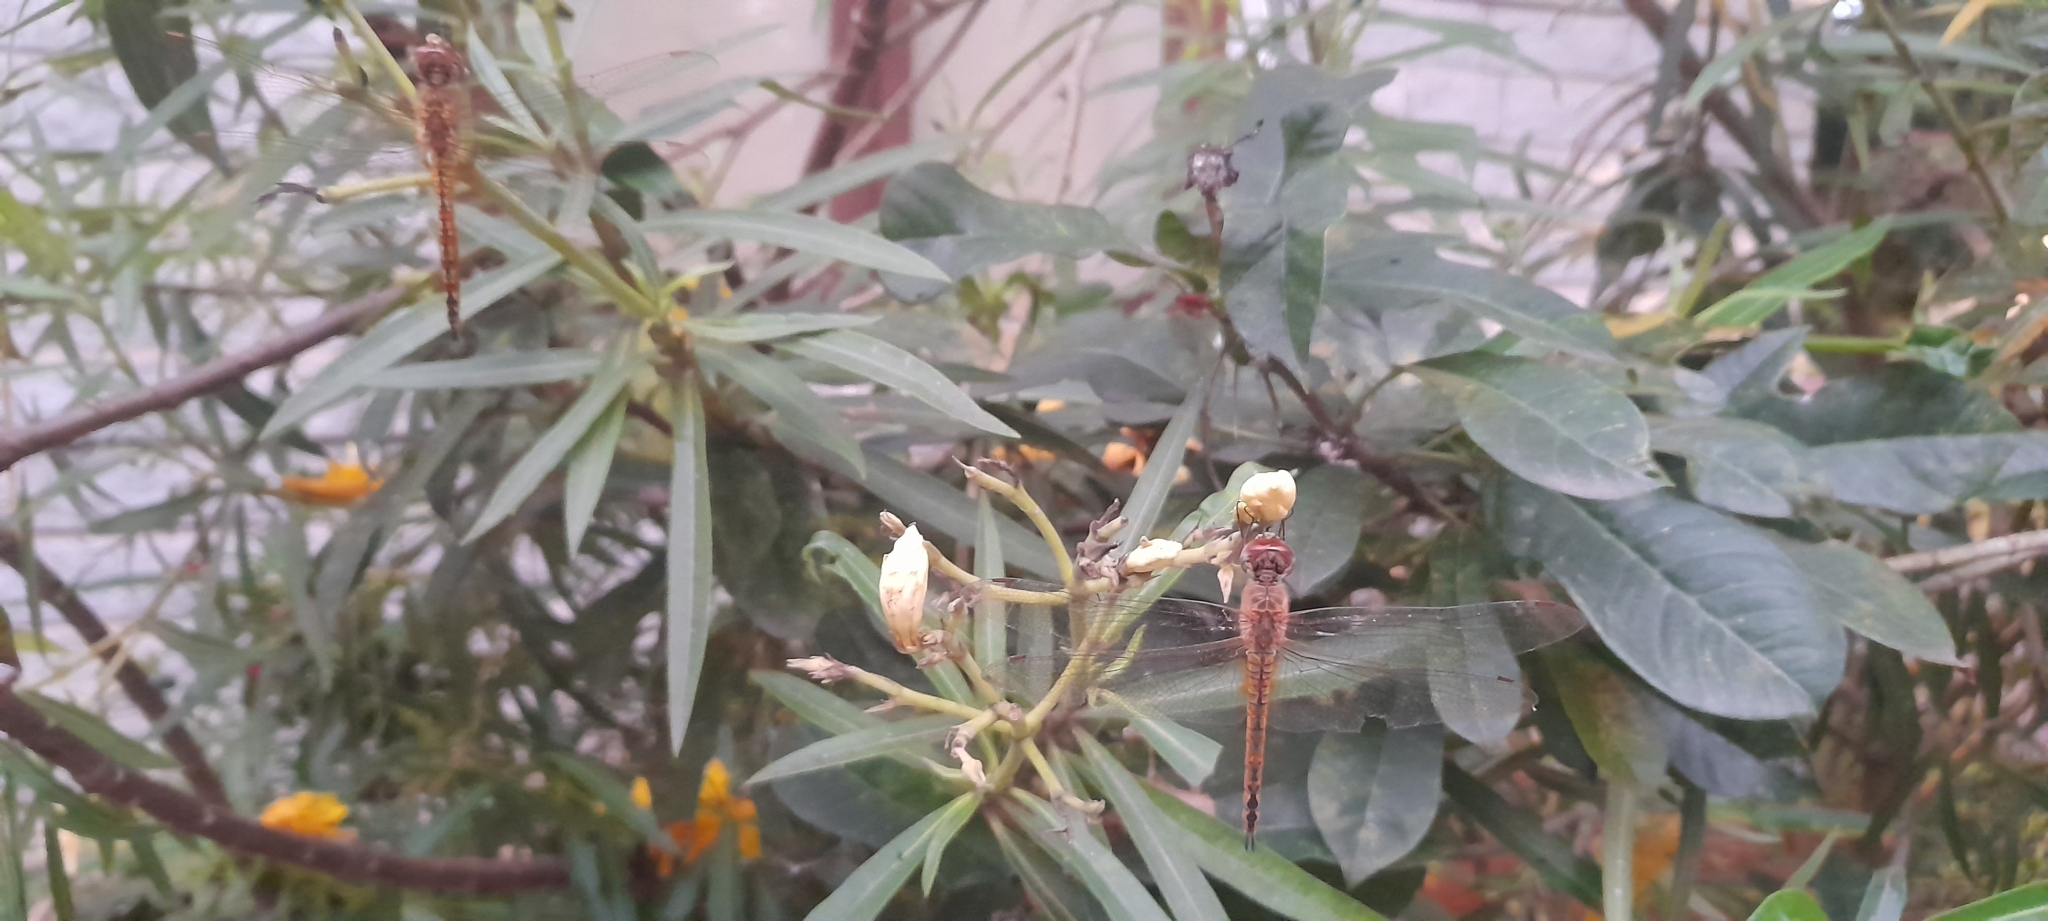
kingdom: Animalia
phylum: Arthropoda
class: Insecta
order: Odonata
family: Libellulidae
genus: Pantala
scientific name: Pantala flavescens
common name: Wandering glider
